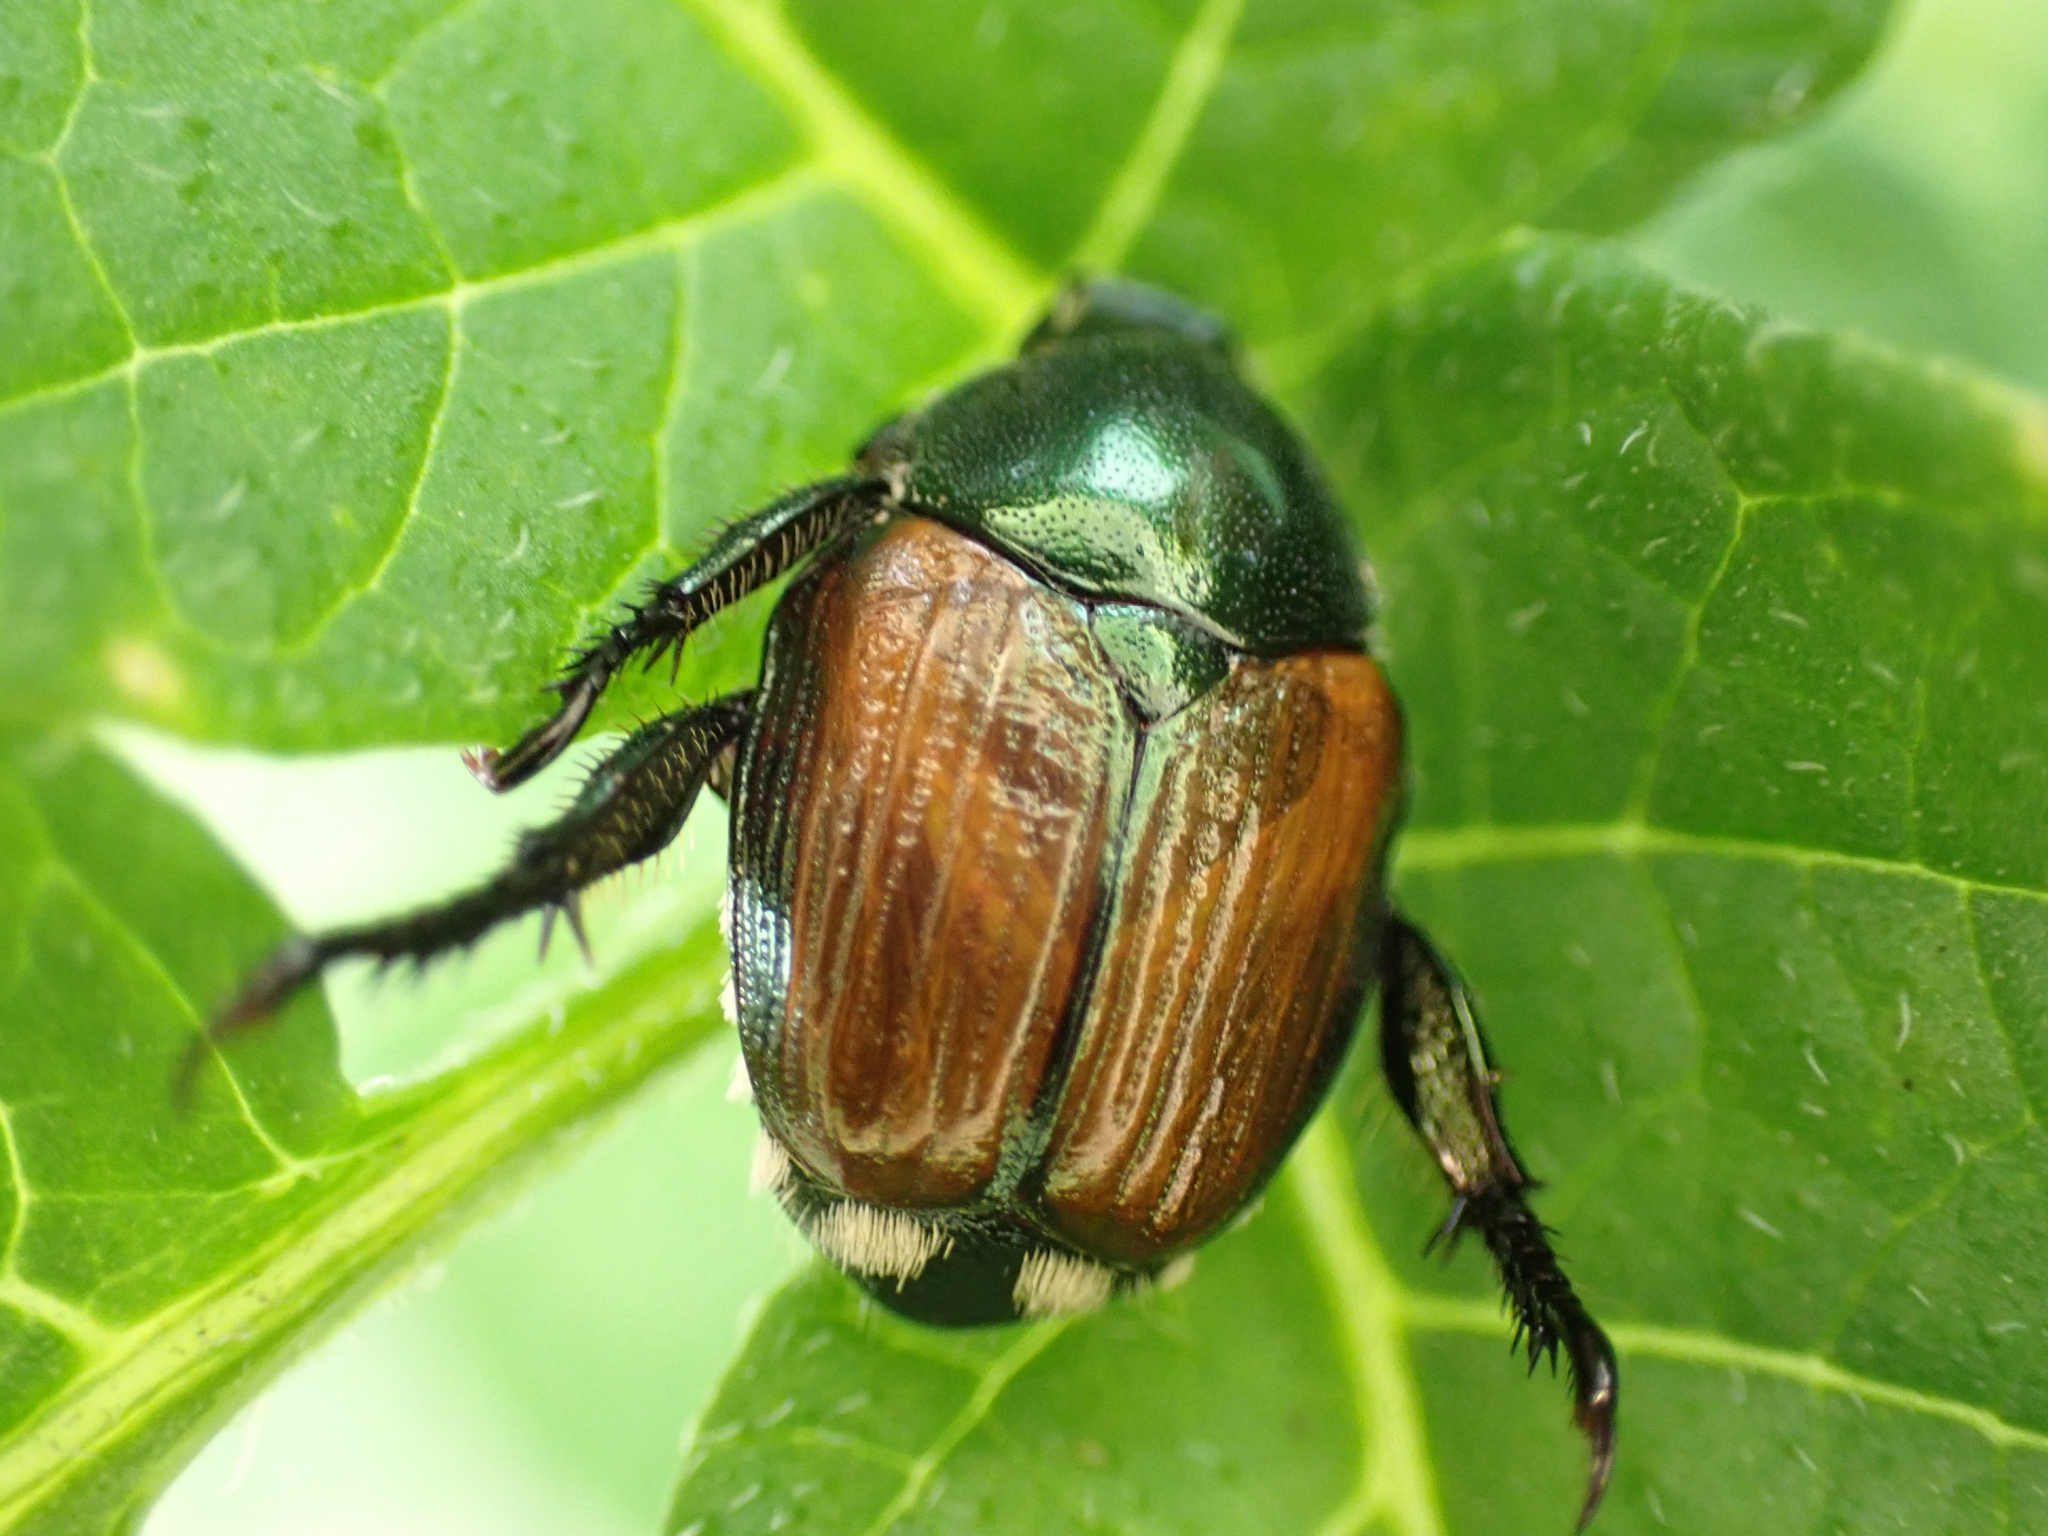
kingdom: Animalia
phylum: Arthropoda
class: Insecta
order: Coleoptera
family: Scarabaeidae
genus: Popillia
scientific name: Popillia japonica
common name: Japanese beetle
